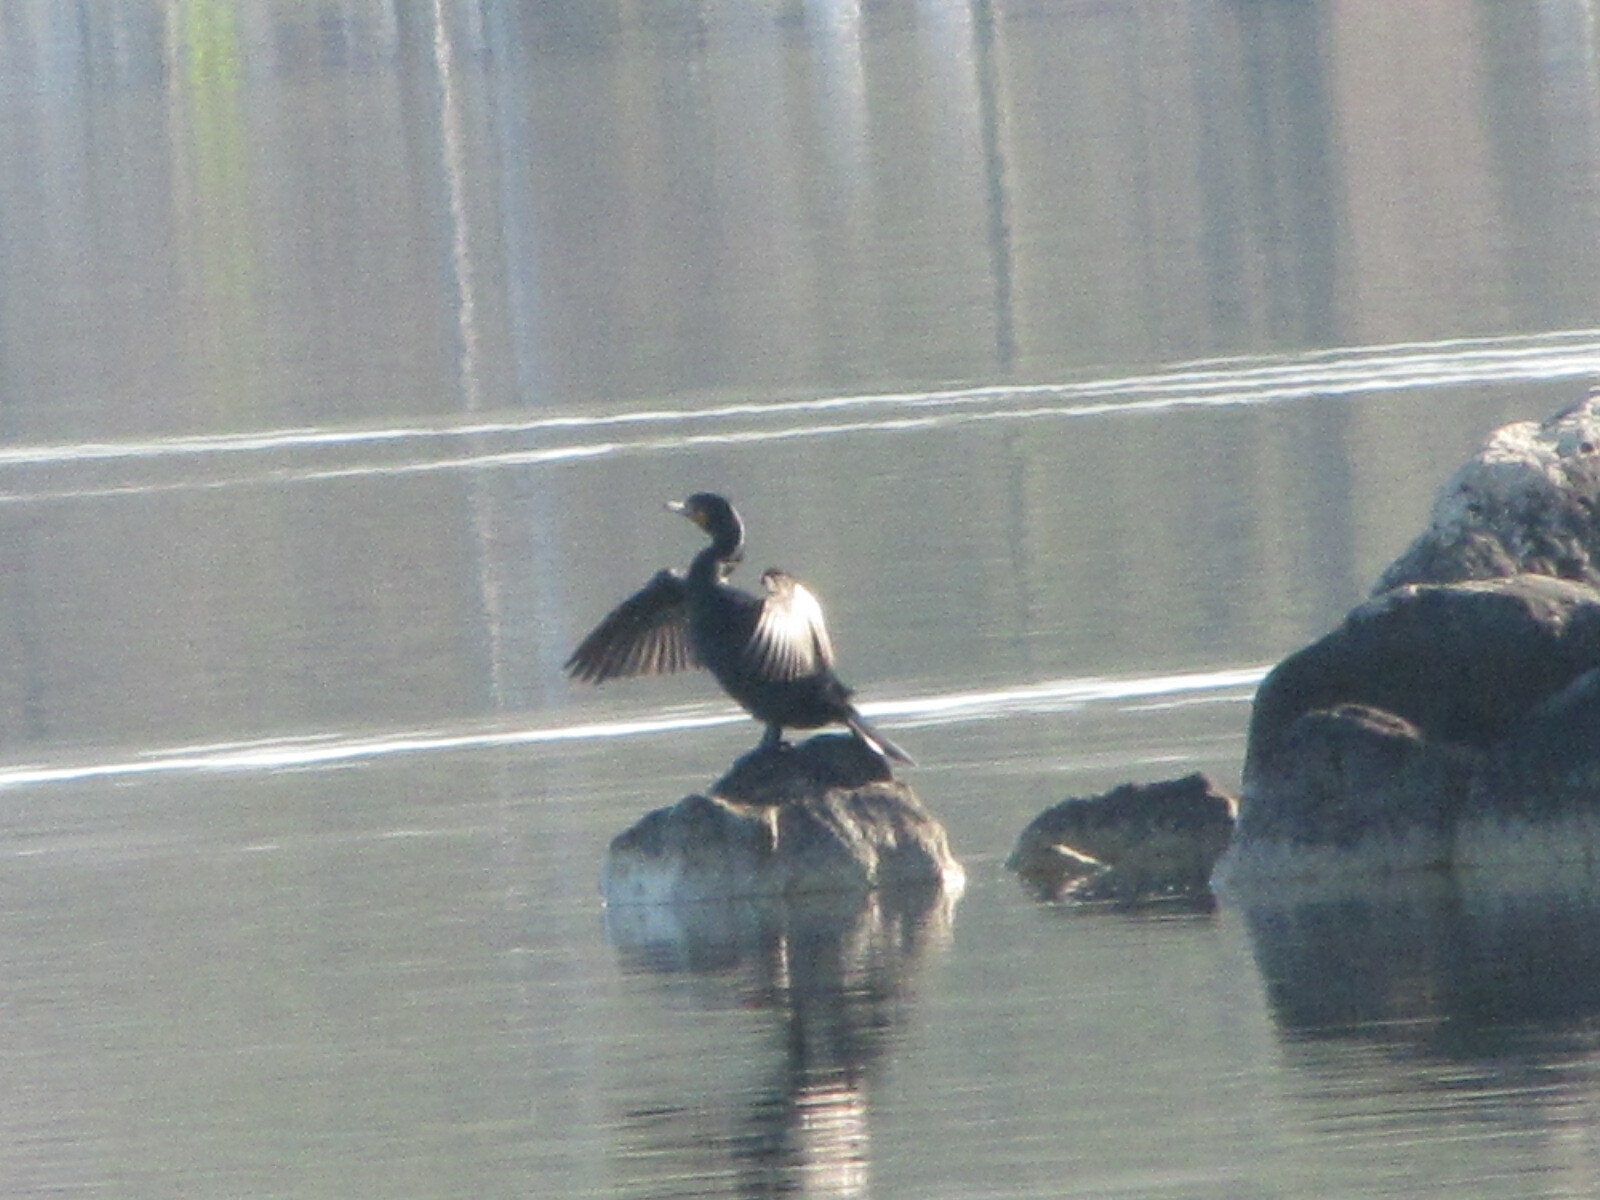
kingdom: Animalia
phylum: Chordata
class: Aves
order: Suliformes
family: Phalacrocoracidae
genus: Phalacrocorax
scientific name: Phalacrocorax auritus
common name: Double-crested cormorant
